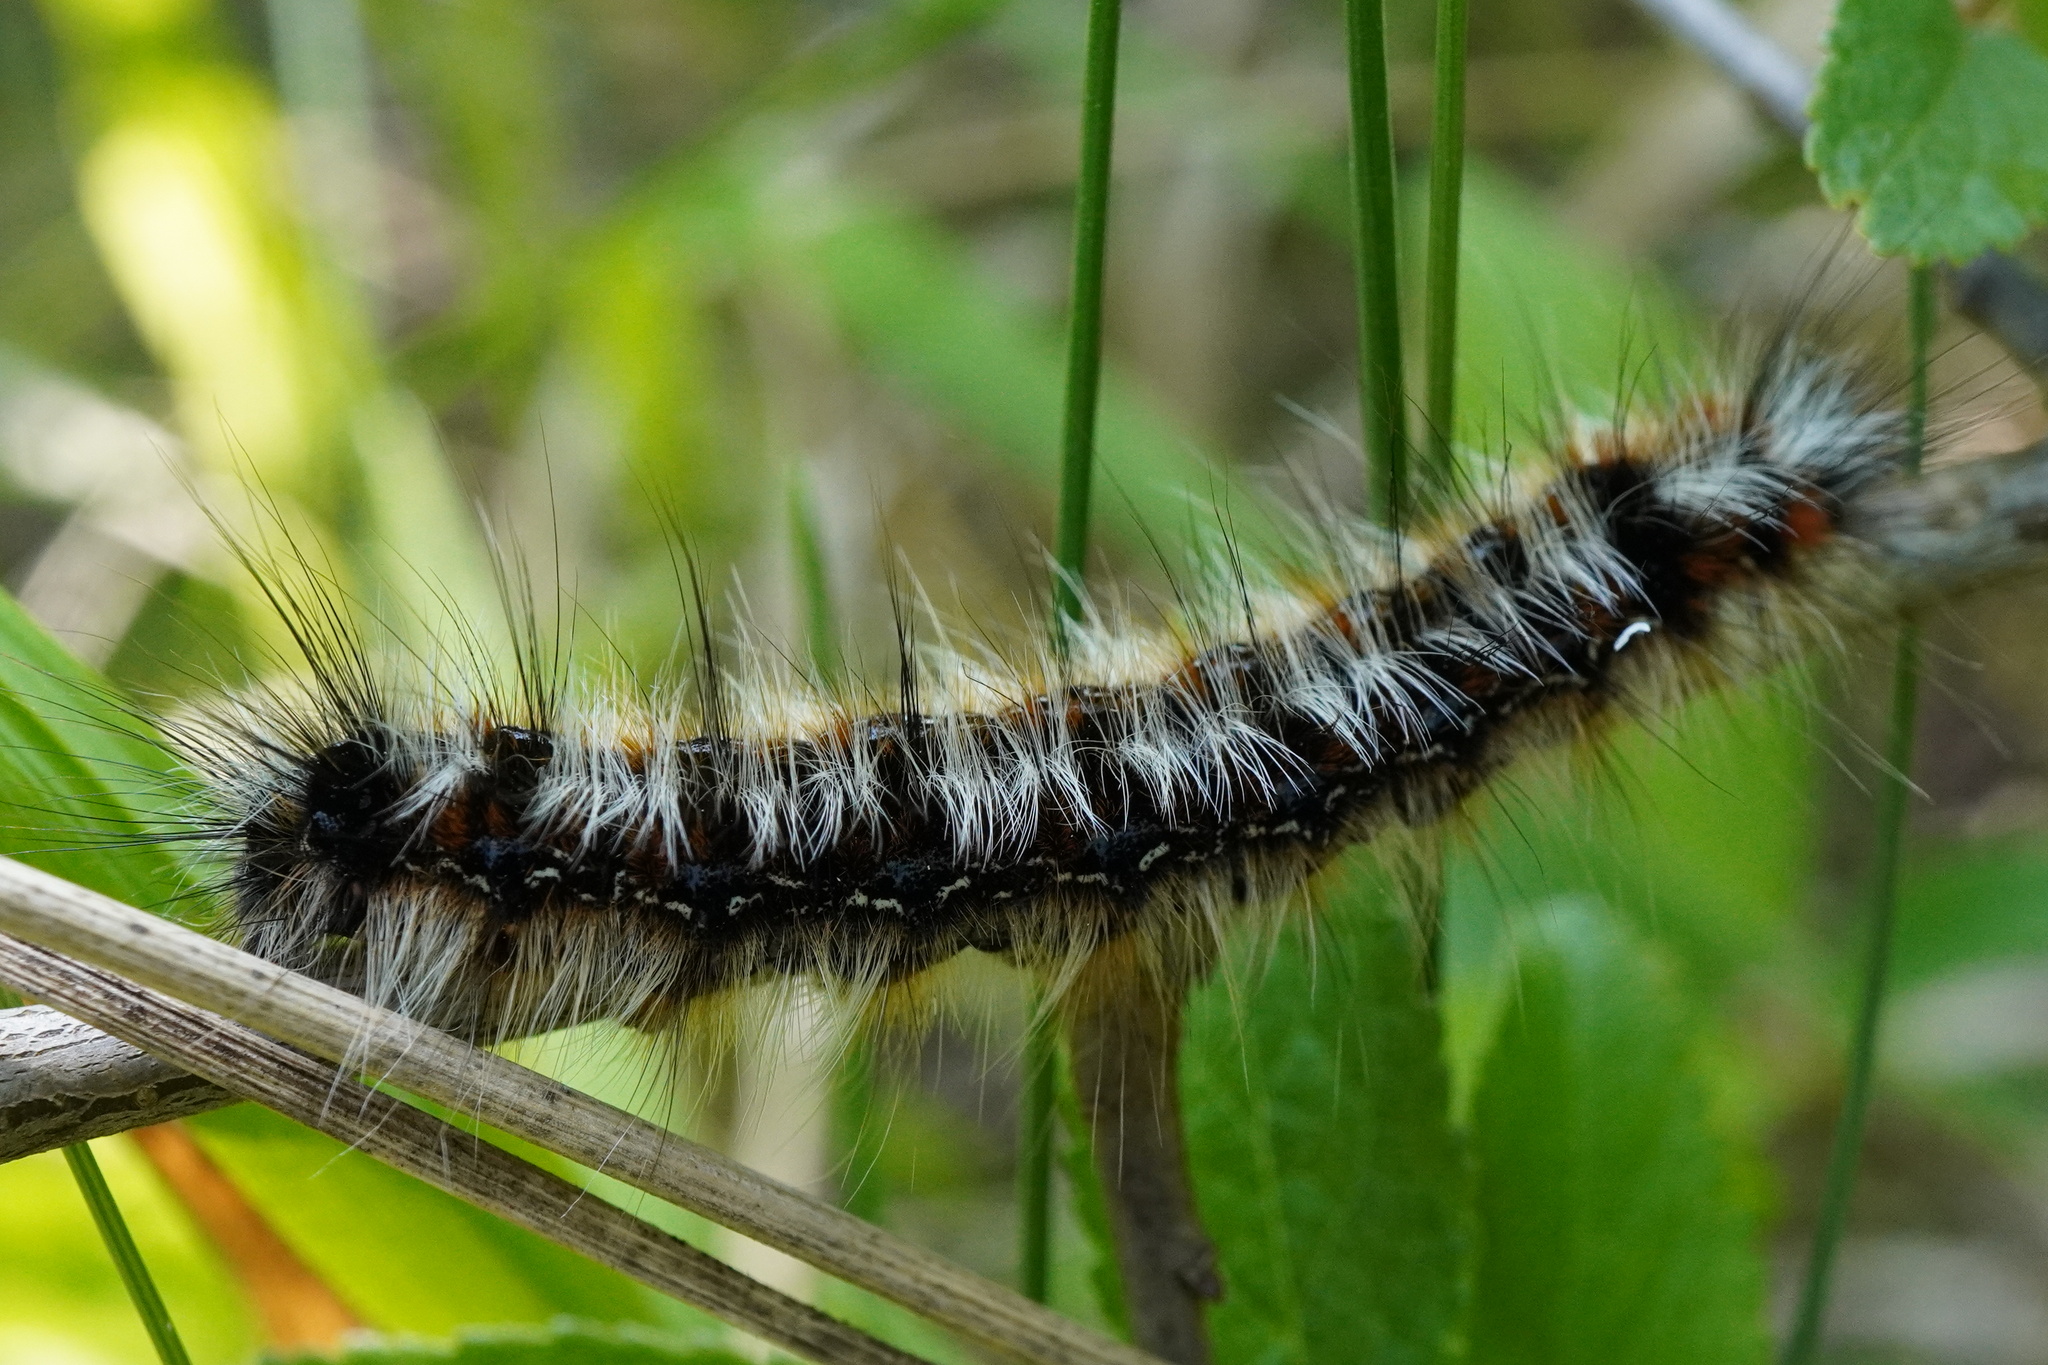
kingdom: Animalia
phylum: Arthropoda
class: Insecta
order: Lepidoptera
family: Lasiocampidae
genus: Eriogaster
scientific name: Eriogaster catax
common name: Eastern eggar
